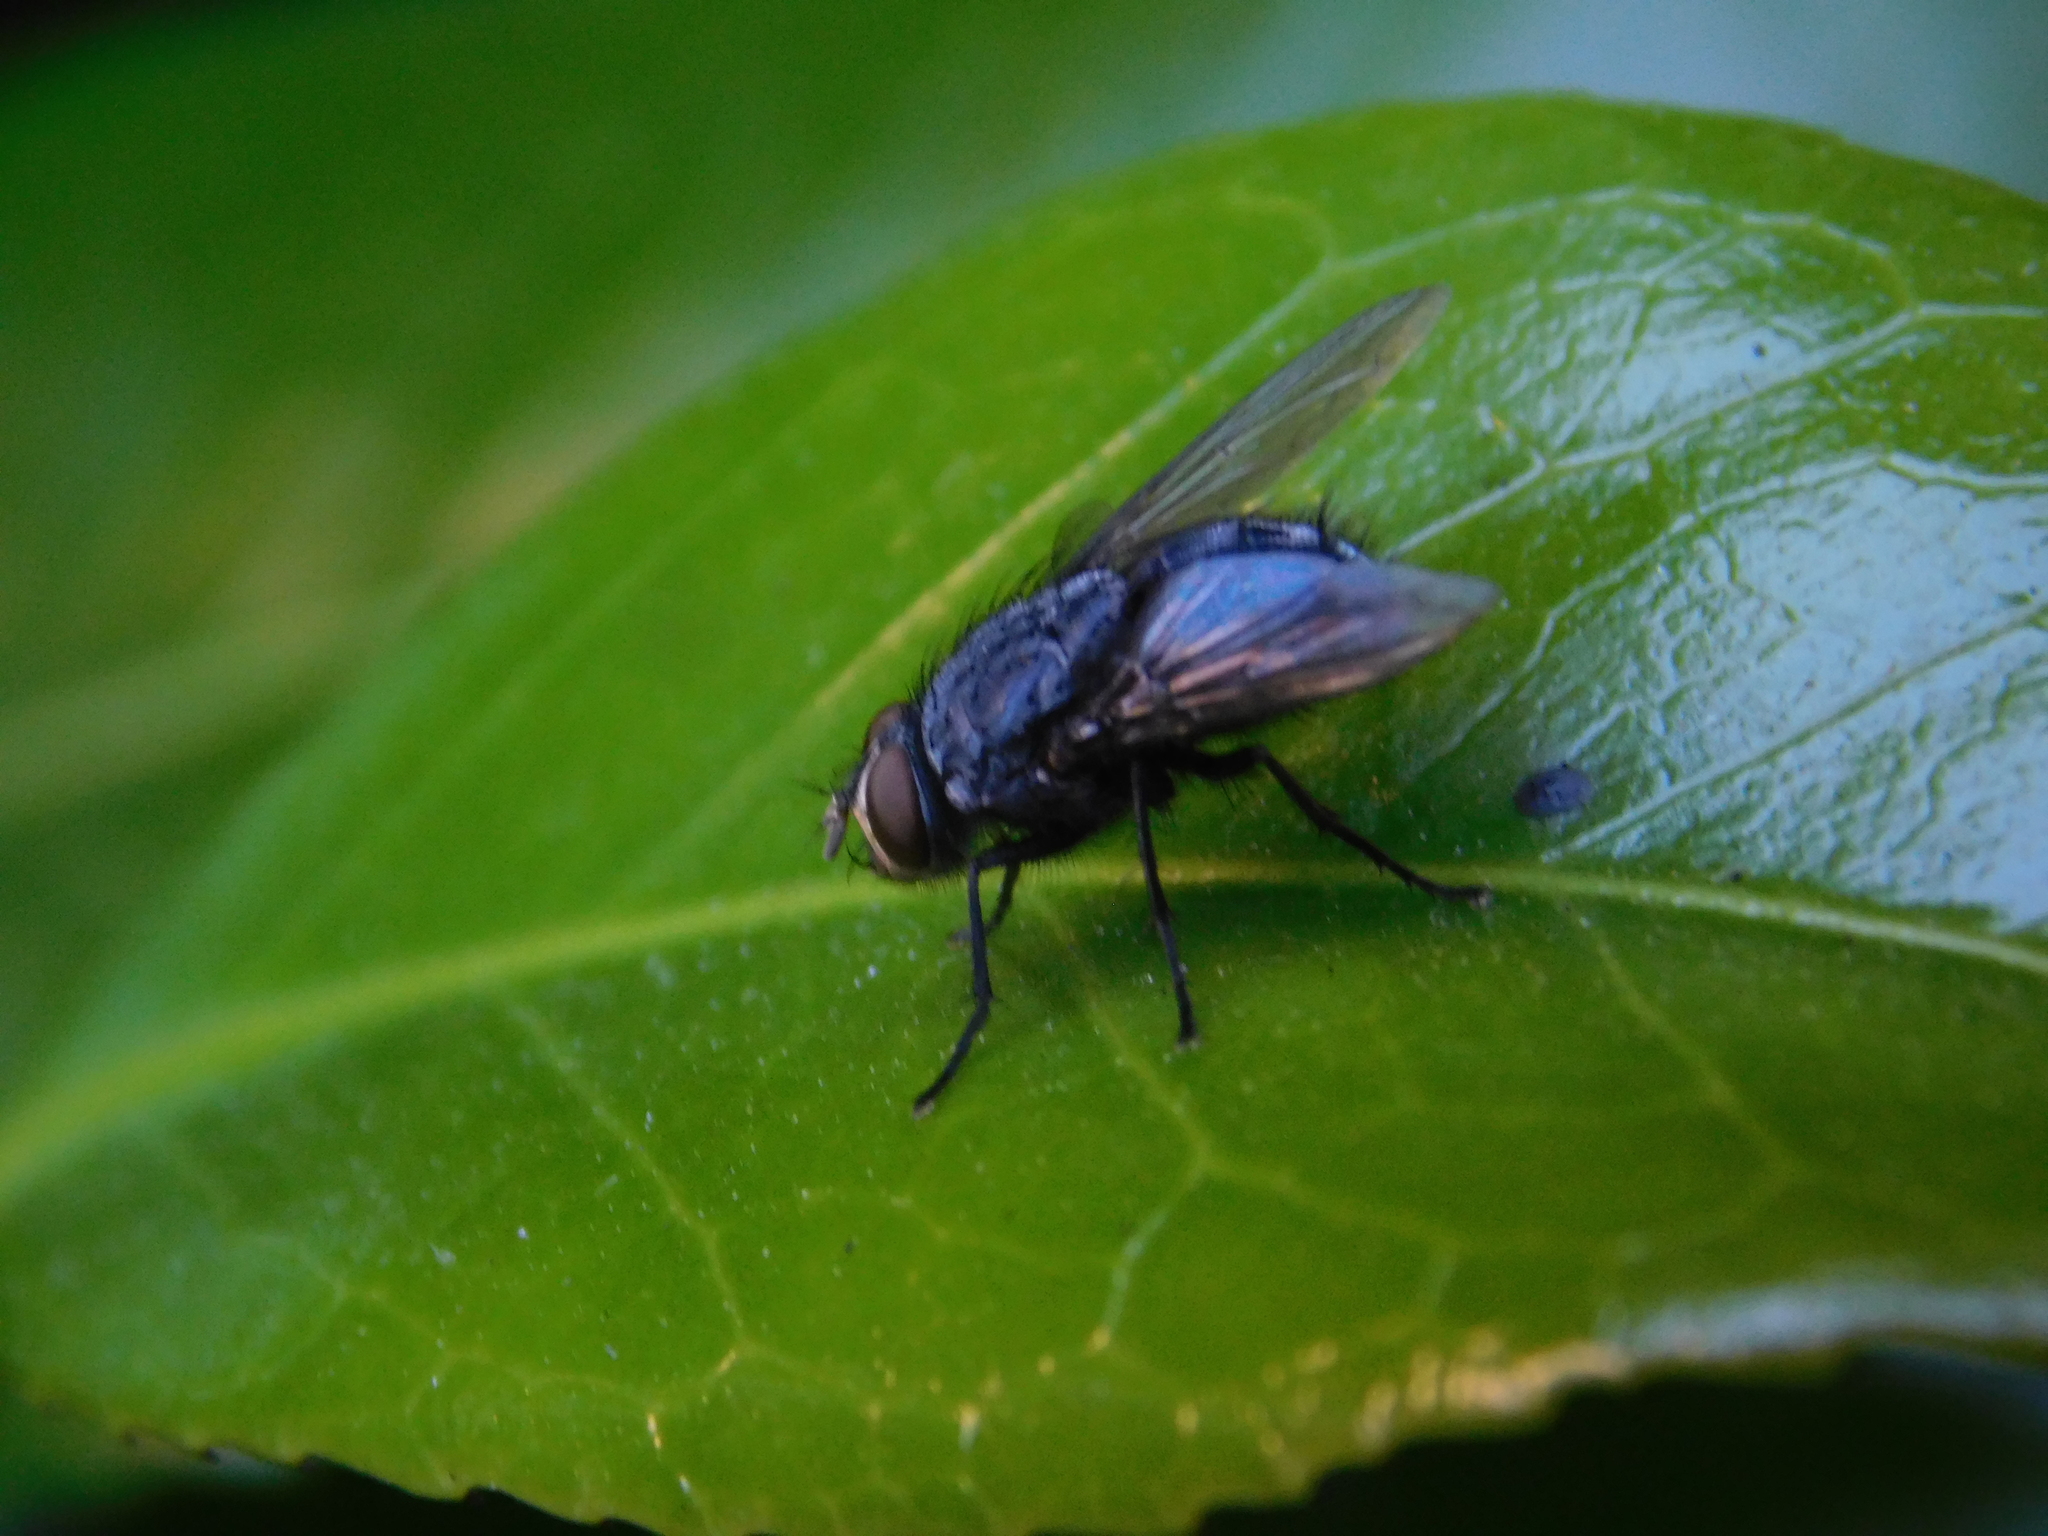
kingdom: Animalia
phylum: Arthropoda
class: Insecta
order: Diptera
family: Calliphoridae
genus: Calliphora
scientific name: Calliphora vicina
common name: Common blow flie
